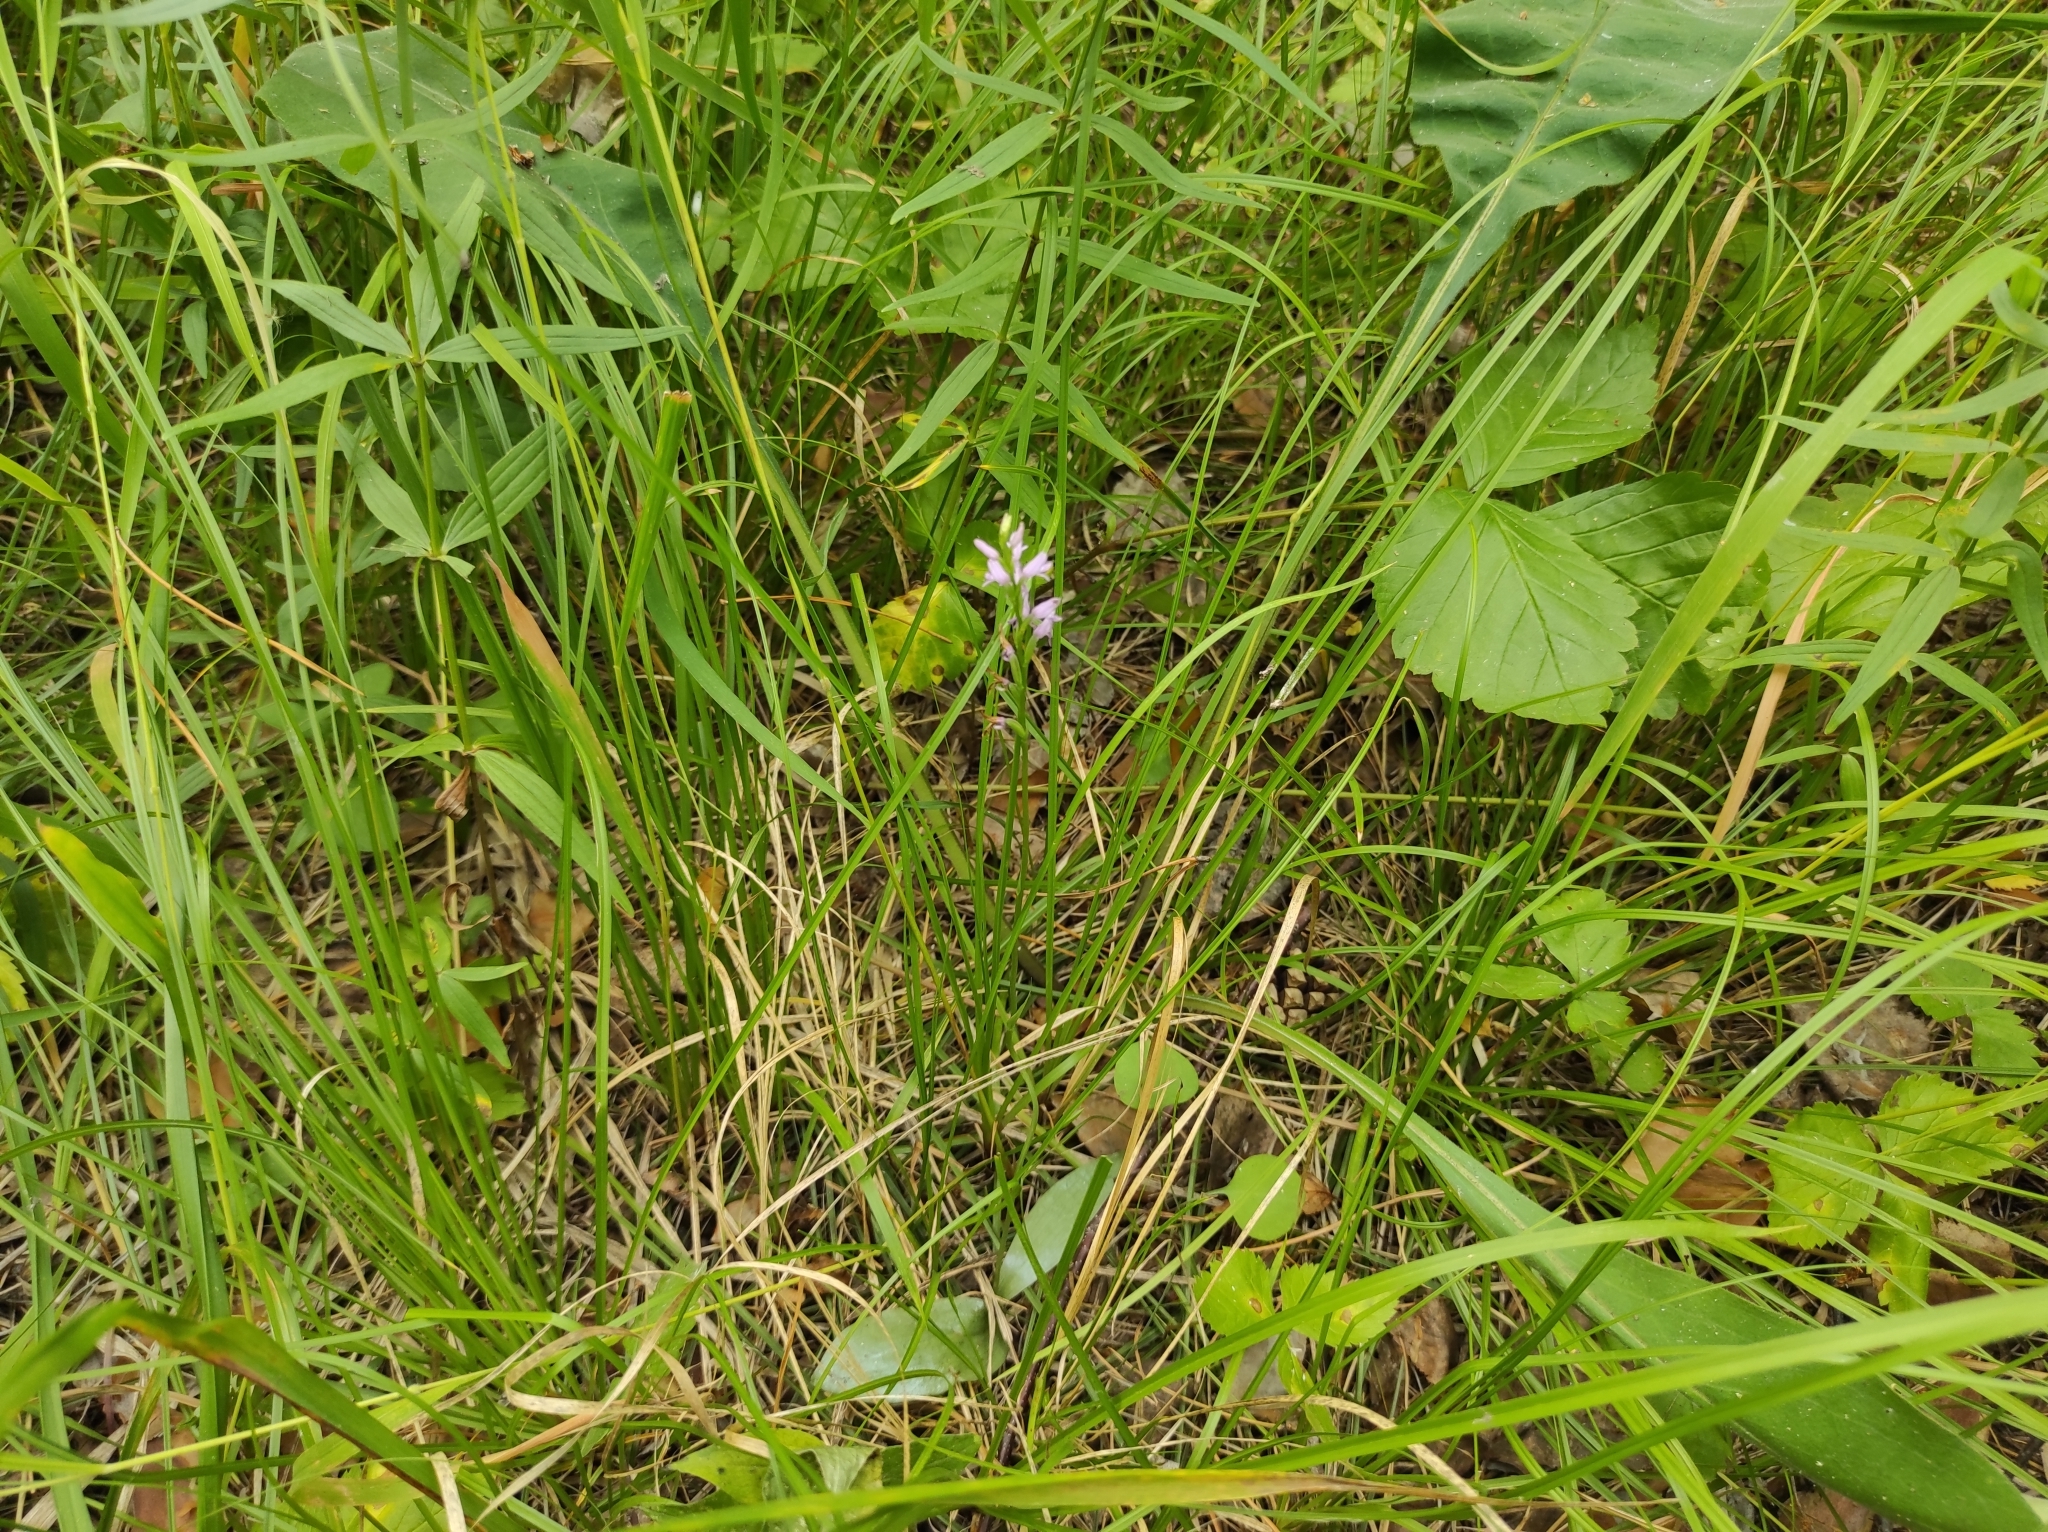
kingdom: Plantae
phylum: Tracheophyta
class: Liliopsida
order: Asparagales
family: Orchidaceae
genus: Hemipilia
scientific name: Hemipilia cucullata
